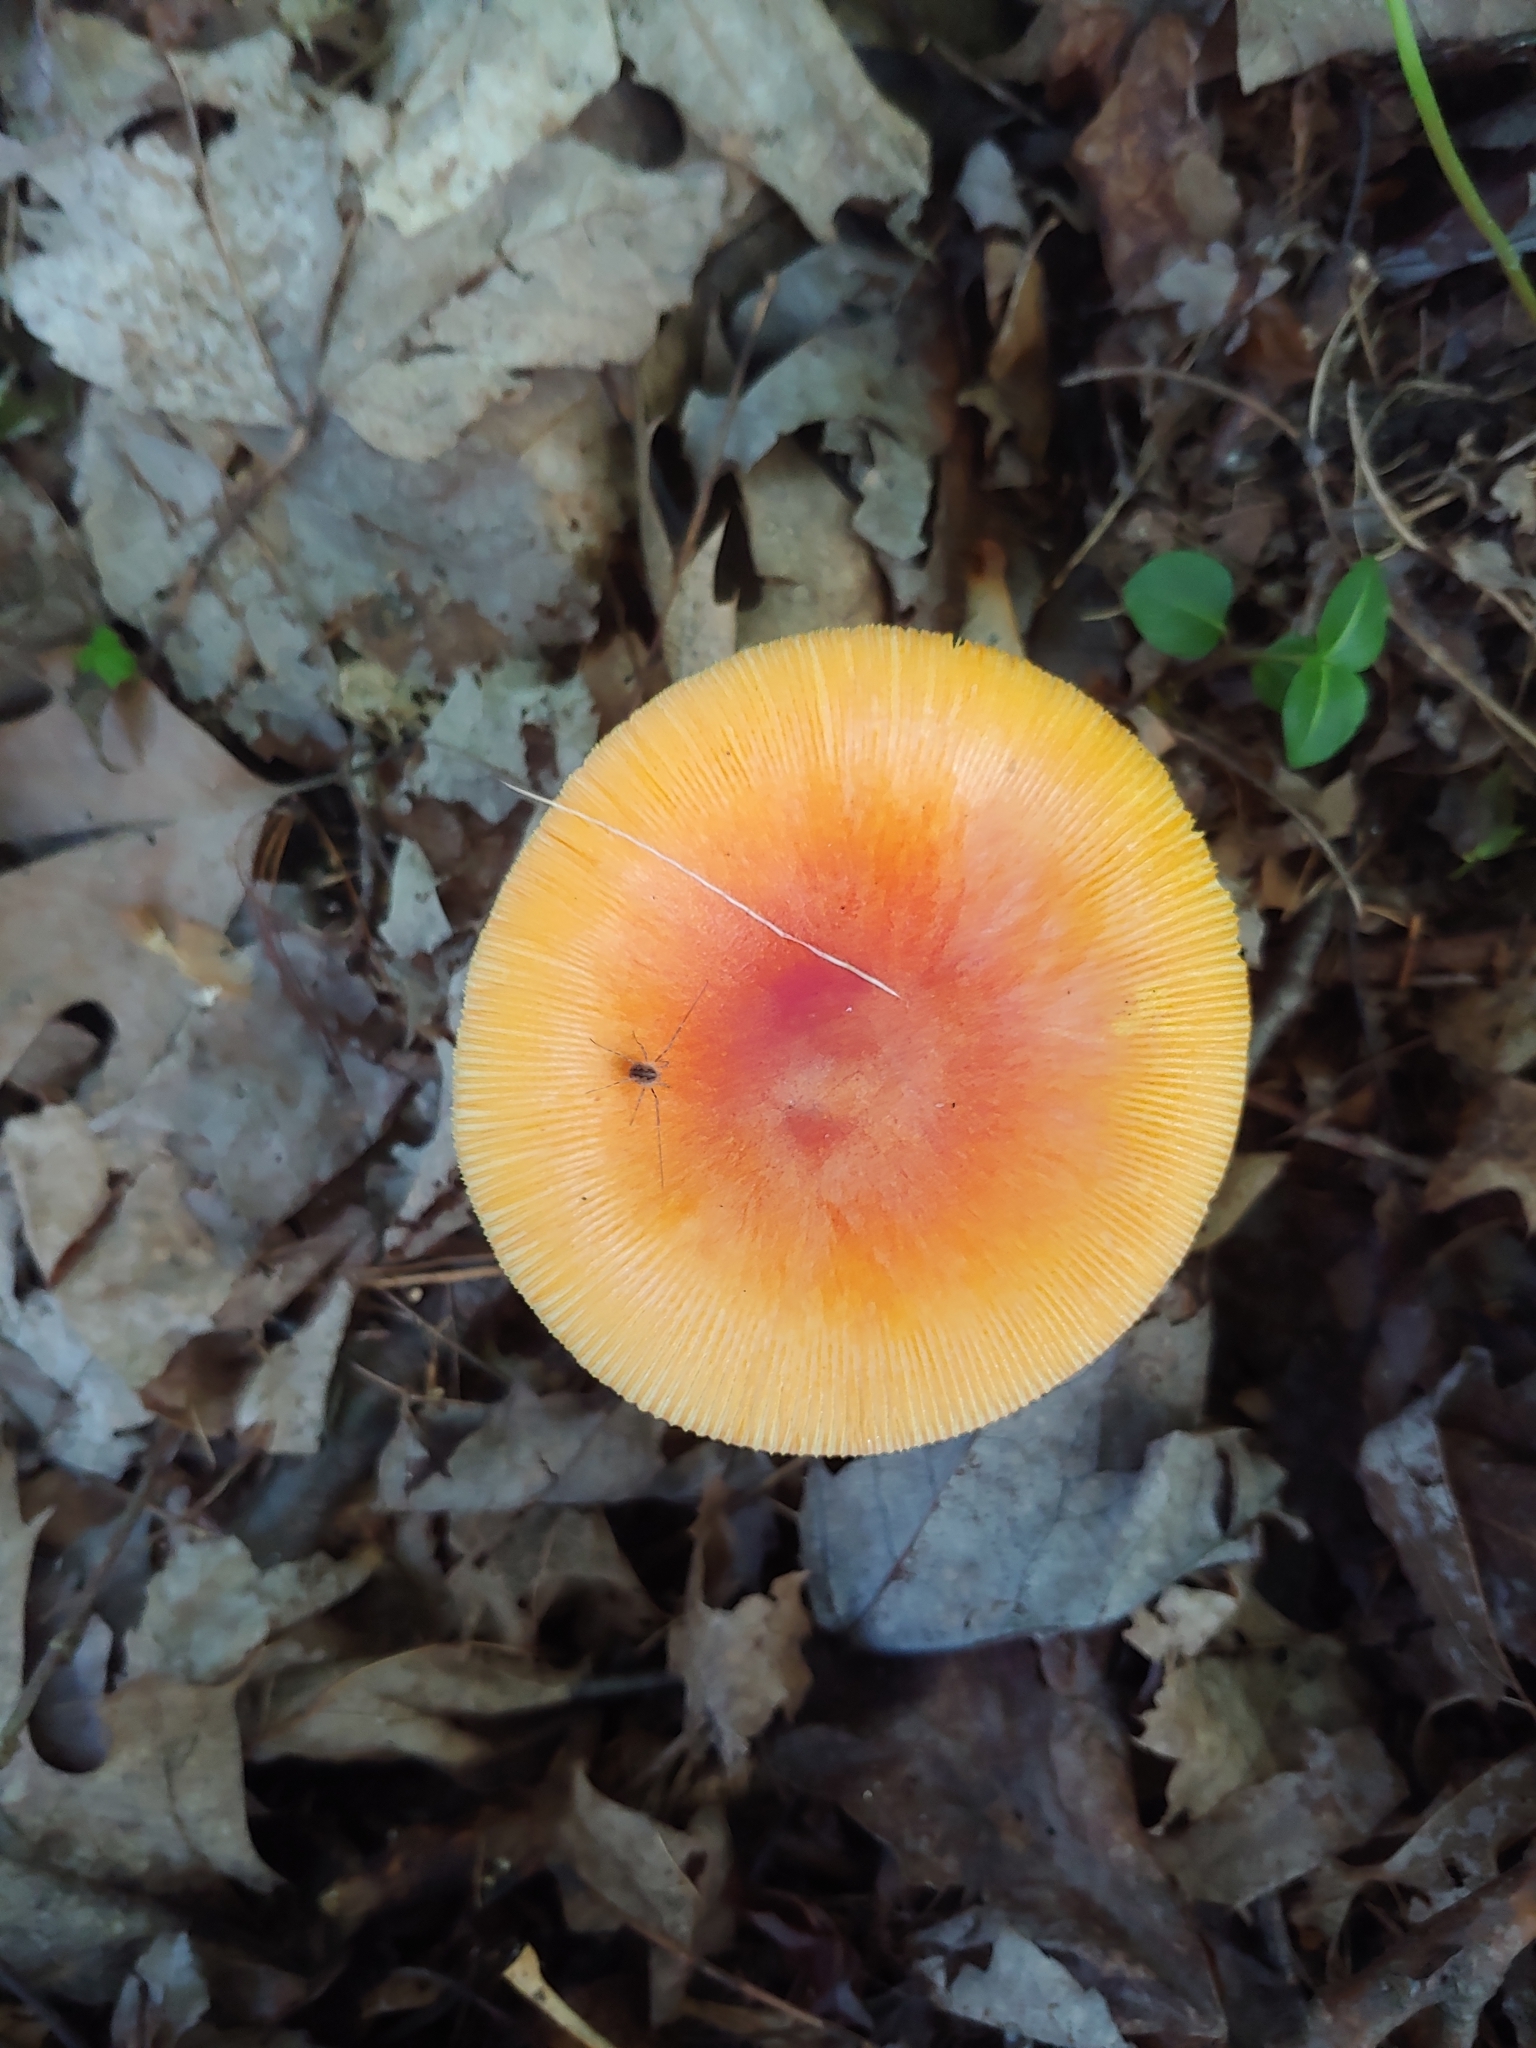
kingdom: Fungi
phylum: Basidiomycota
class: Agaricomycetes
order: Agaricales
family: Amanitaceae
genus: Amanita
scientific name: Amanita jacksonii
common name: Jackson's slender caesar
